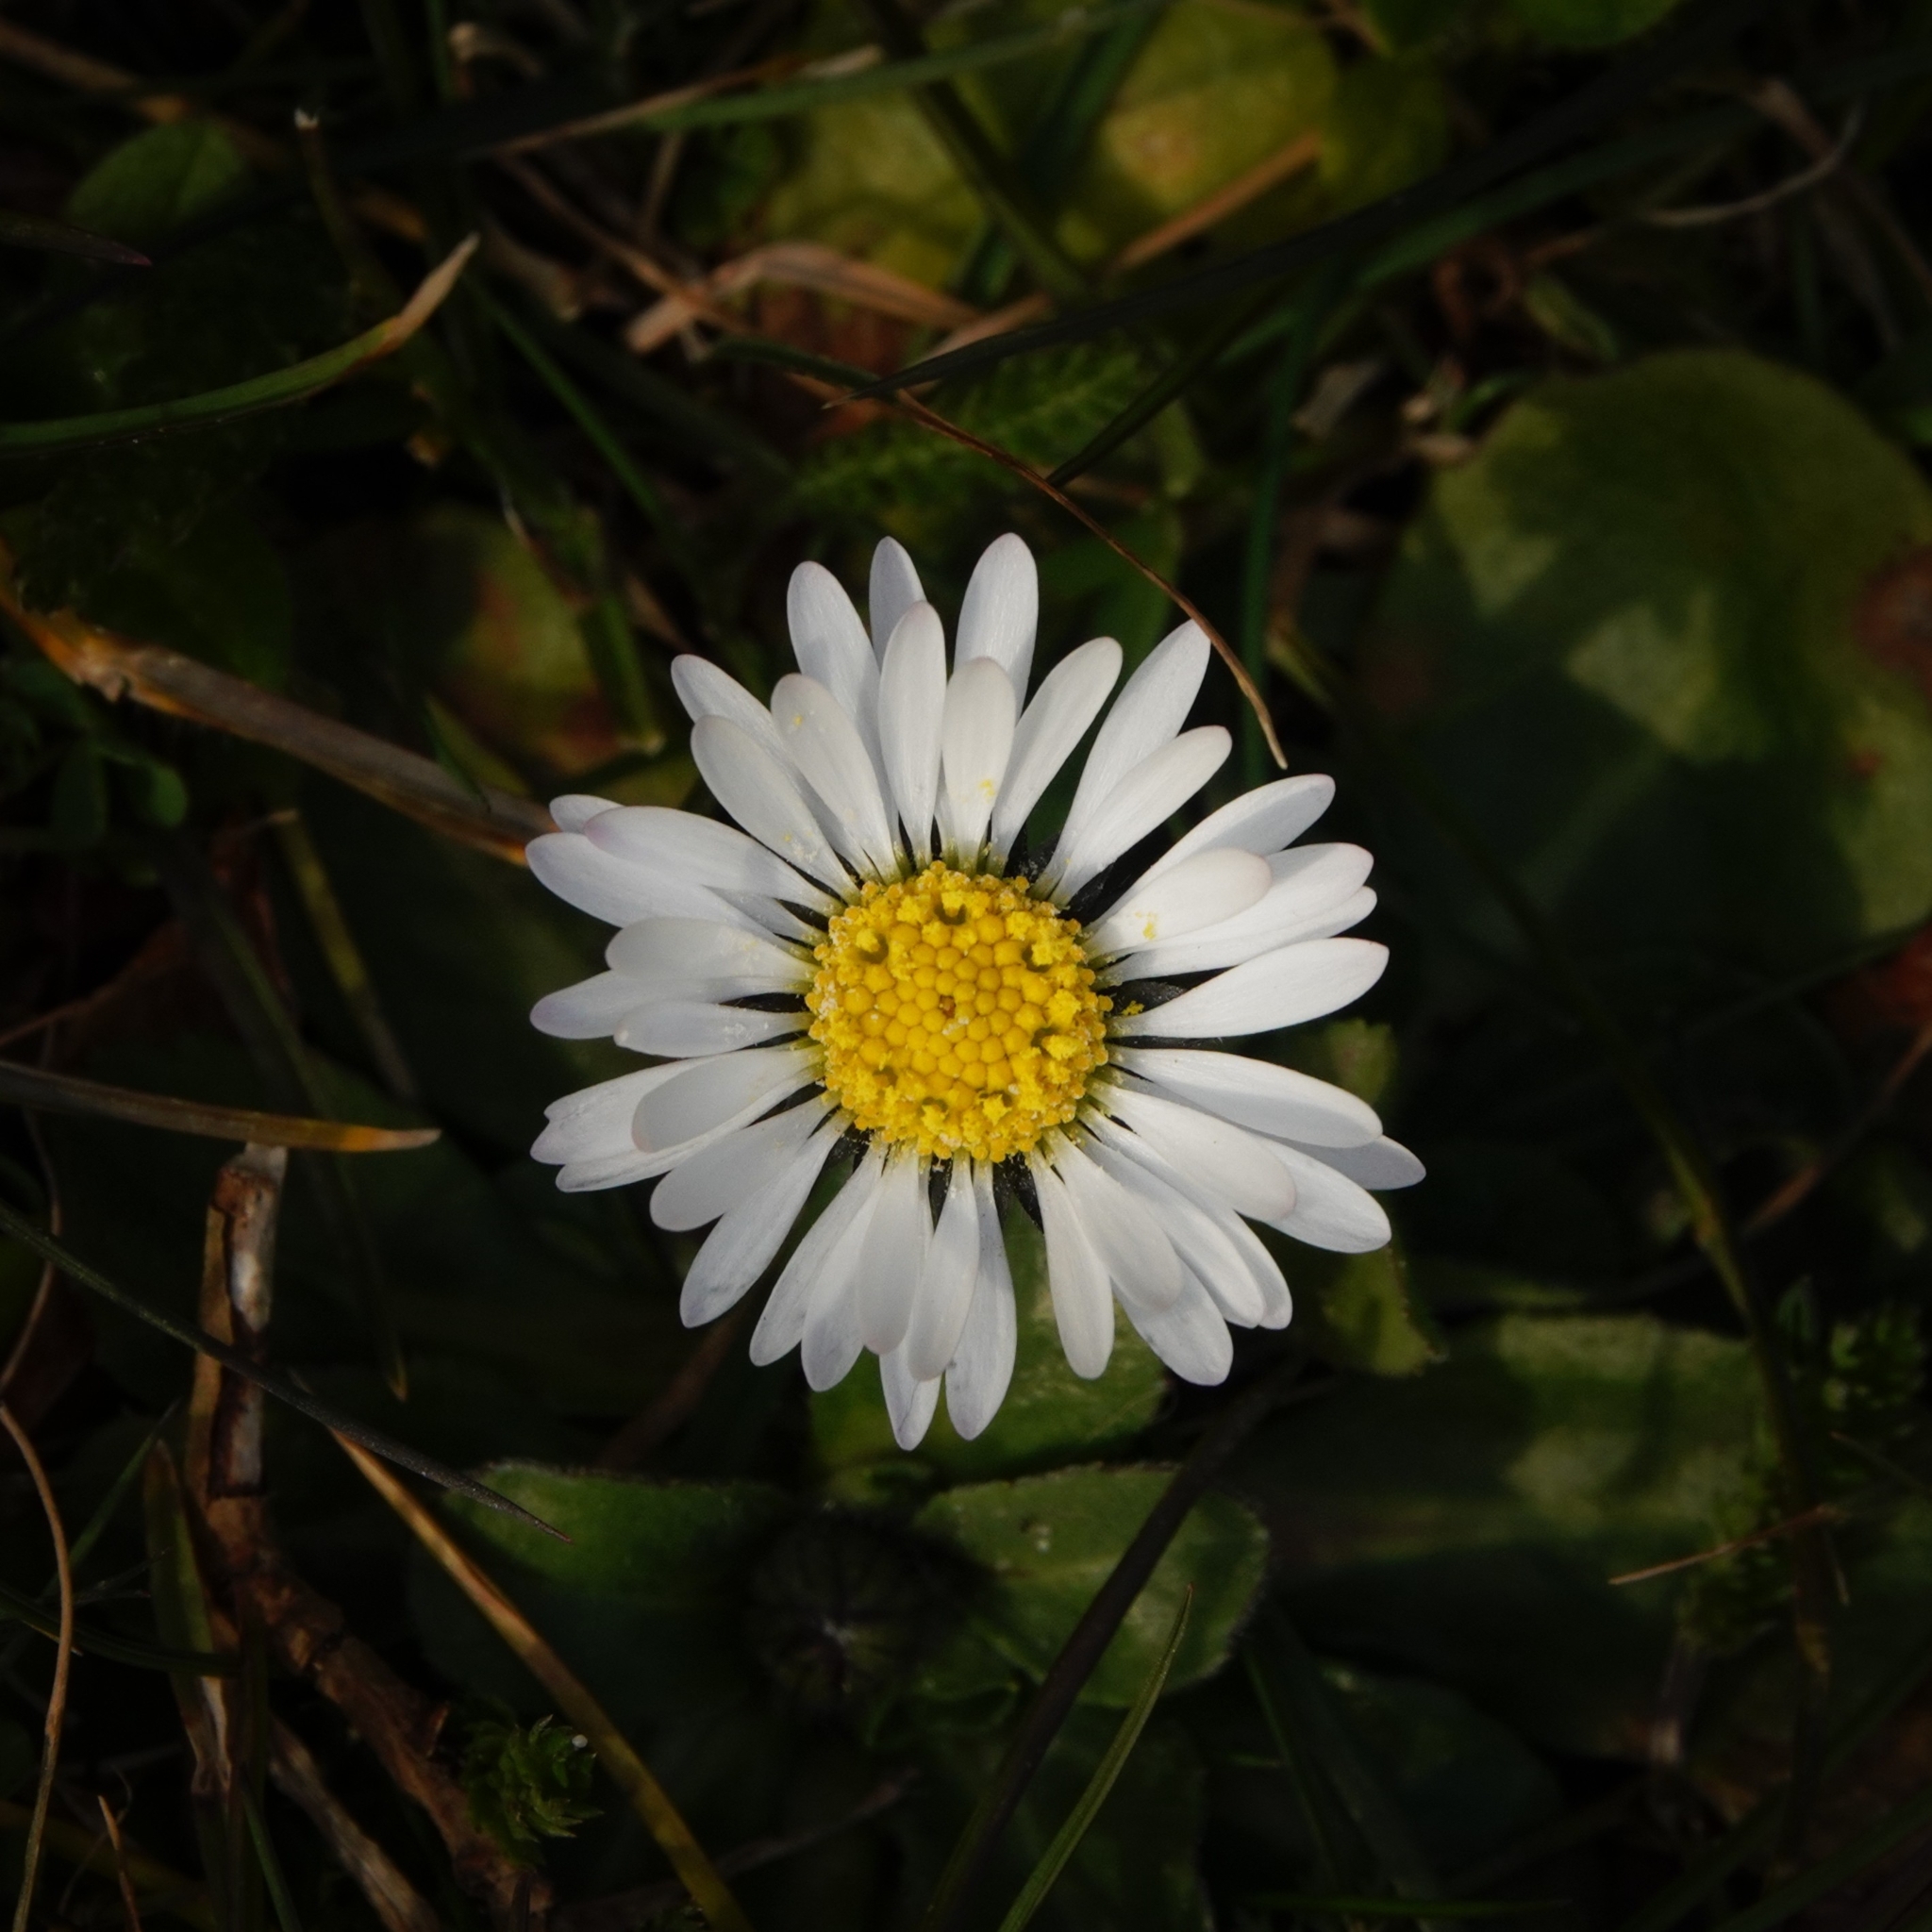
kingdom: Plantae
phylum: Tracheophyta
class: Magnoliopsida
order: Asterales
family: Asteraceae
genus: Bellis
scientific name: Bellis perennis
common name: Lawndaisy
